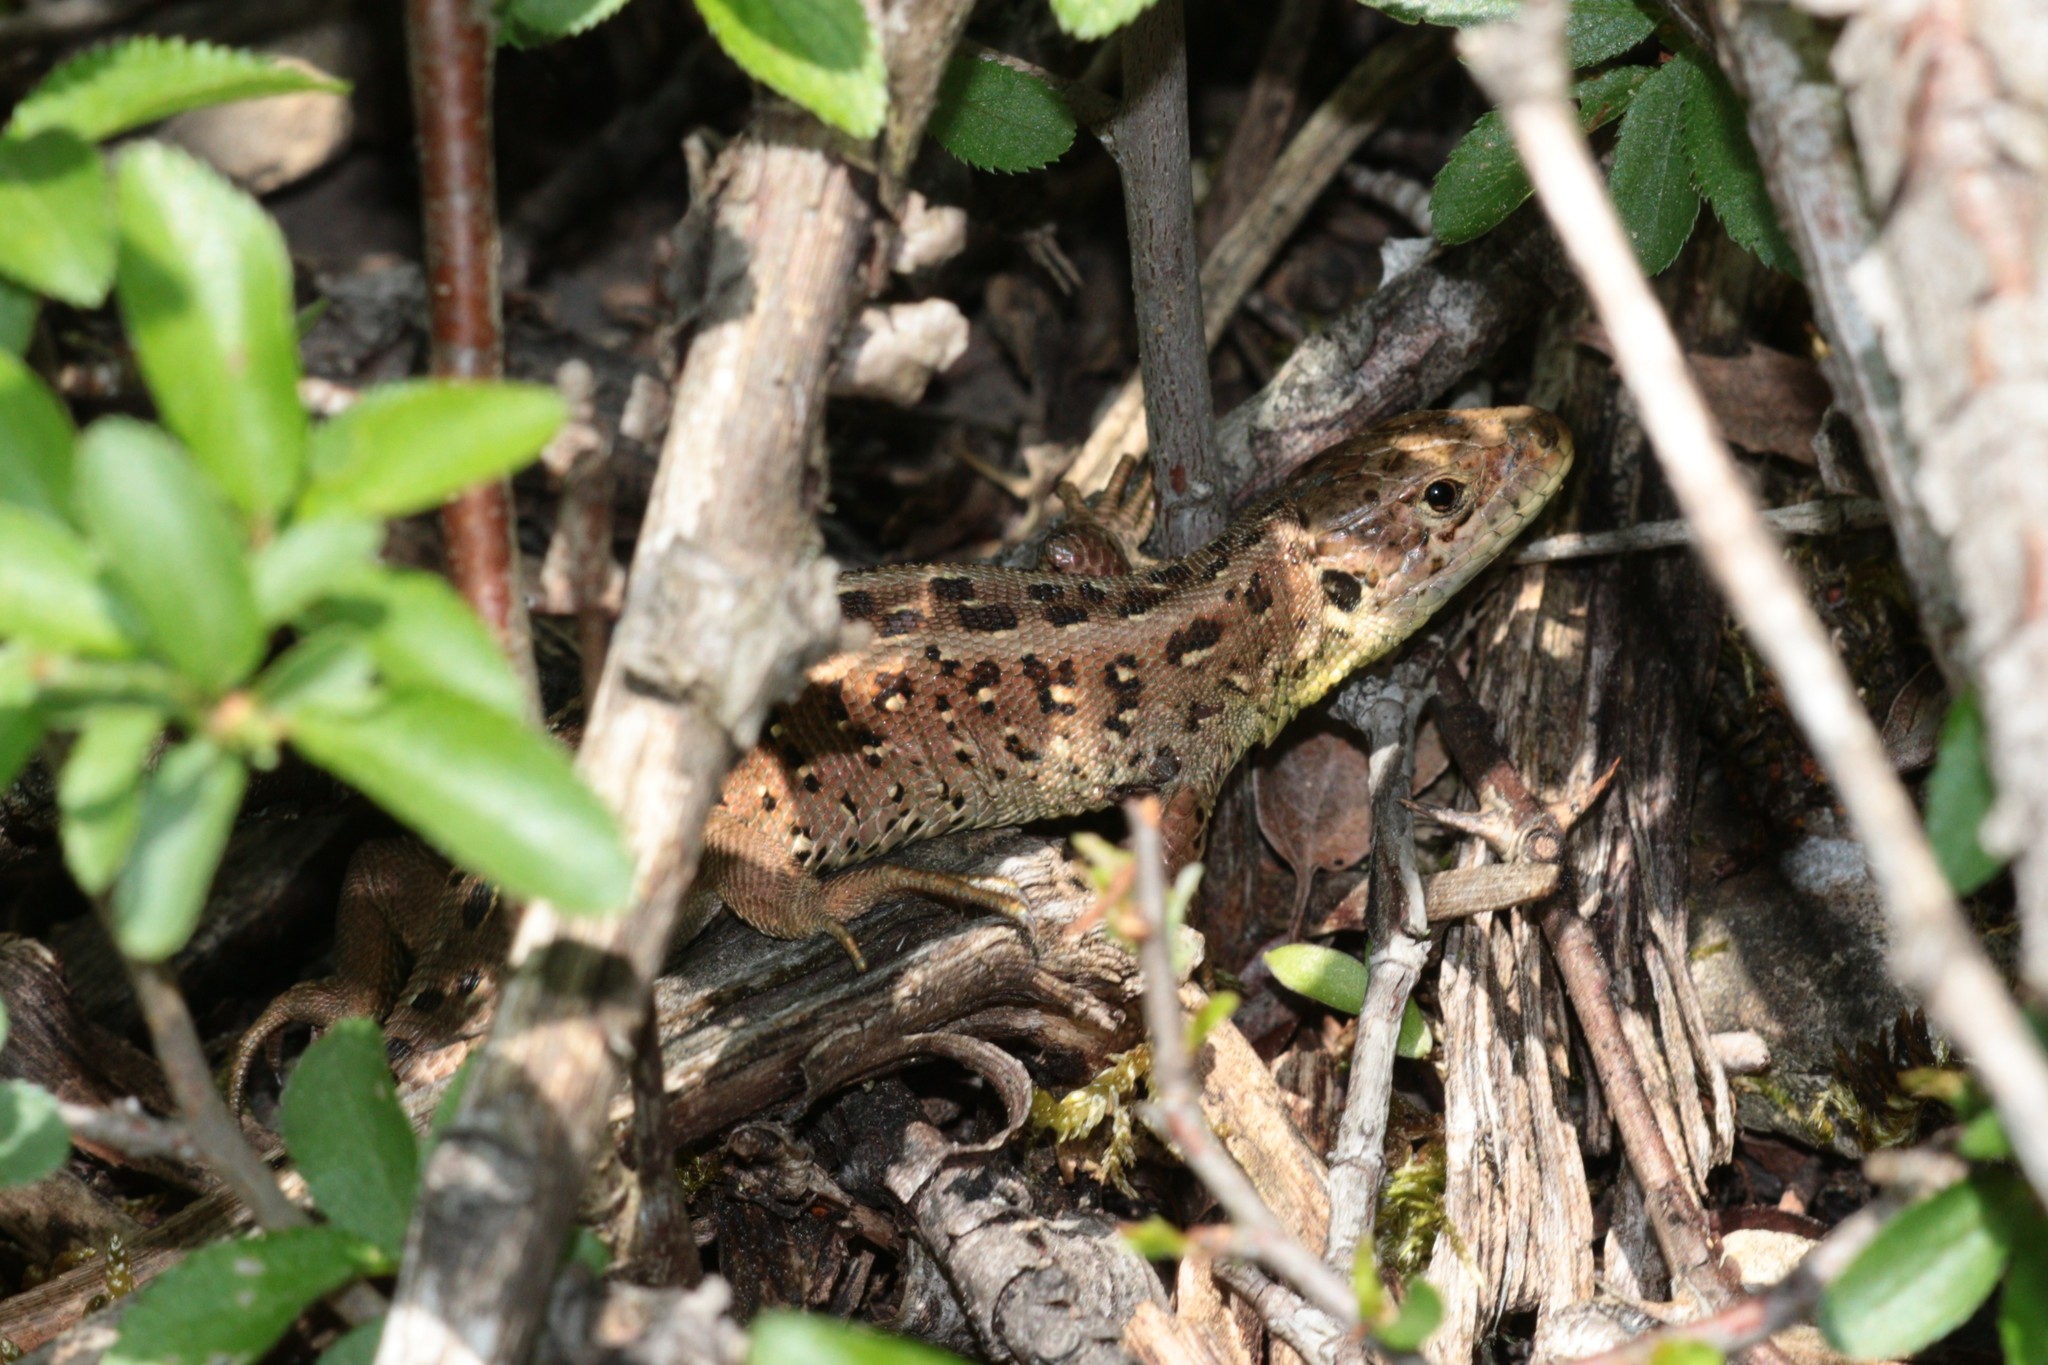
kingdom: Animalia
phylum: Chordata
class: Squamata
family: Lacertidae
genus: Lacerta
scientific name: Lacerta agilis
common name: Sand lizard
